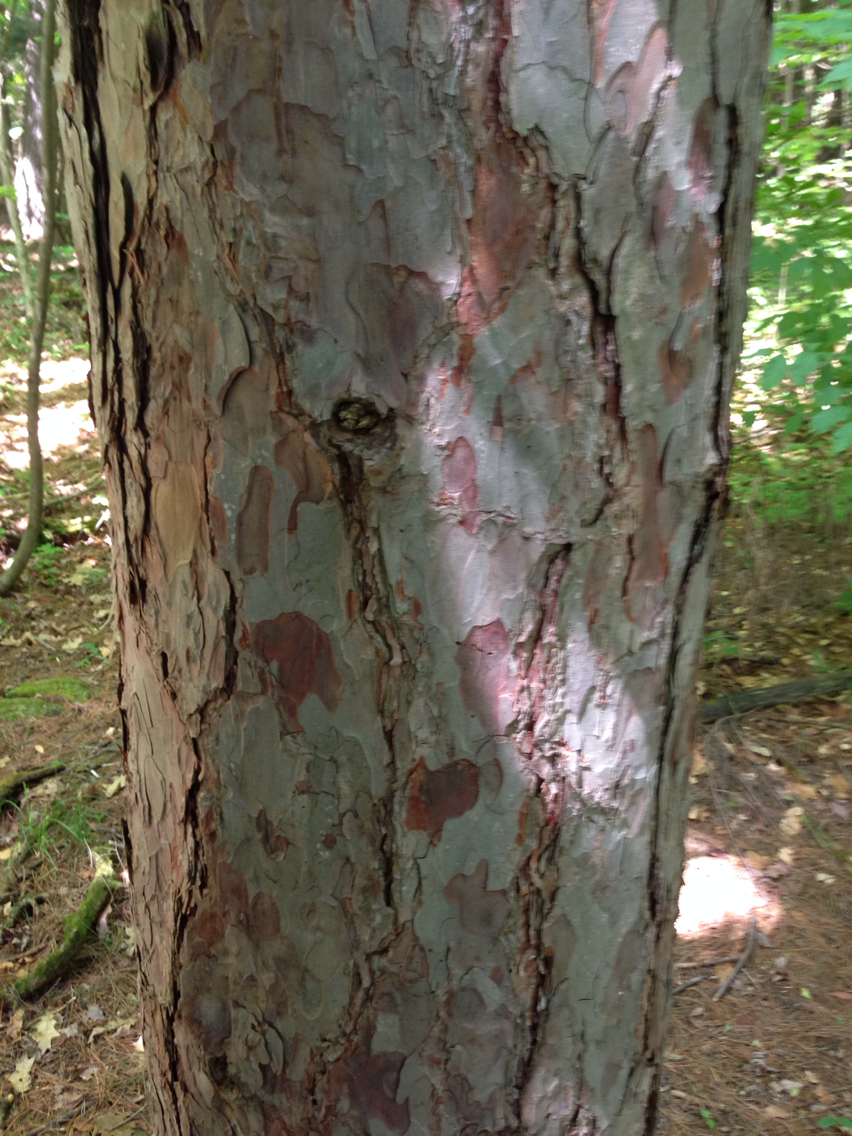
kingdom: Plantae
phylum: Tracheophyta
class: Pinopsida
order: Pinales
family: Pinaceae
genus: Pinus
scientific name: Pinus resinosa
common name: Norway pine
